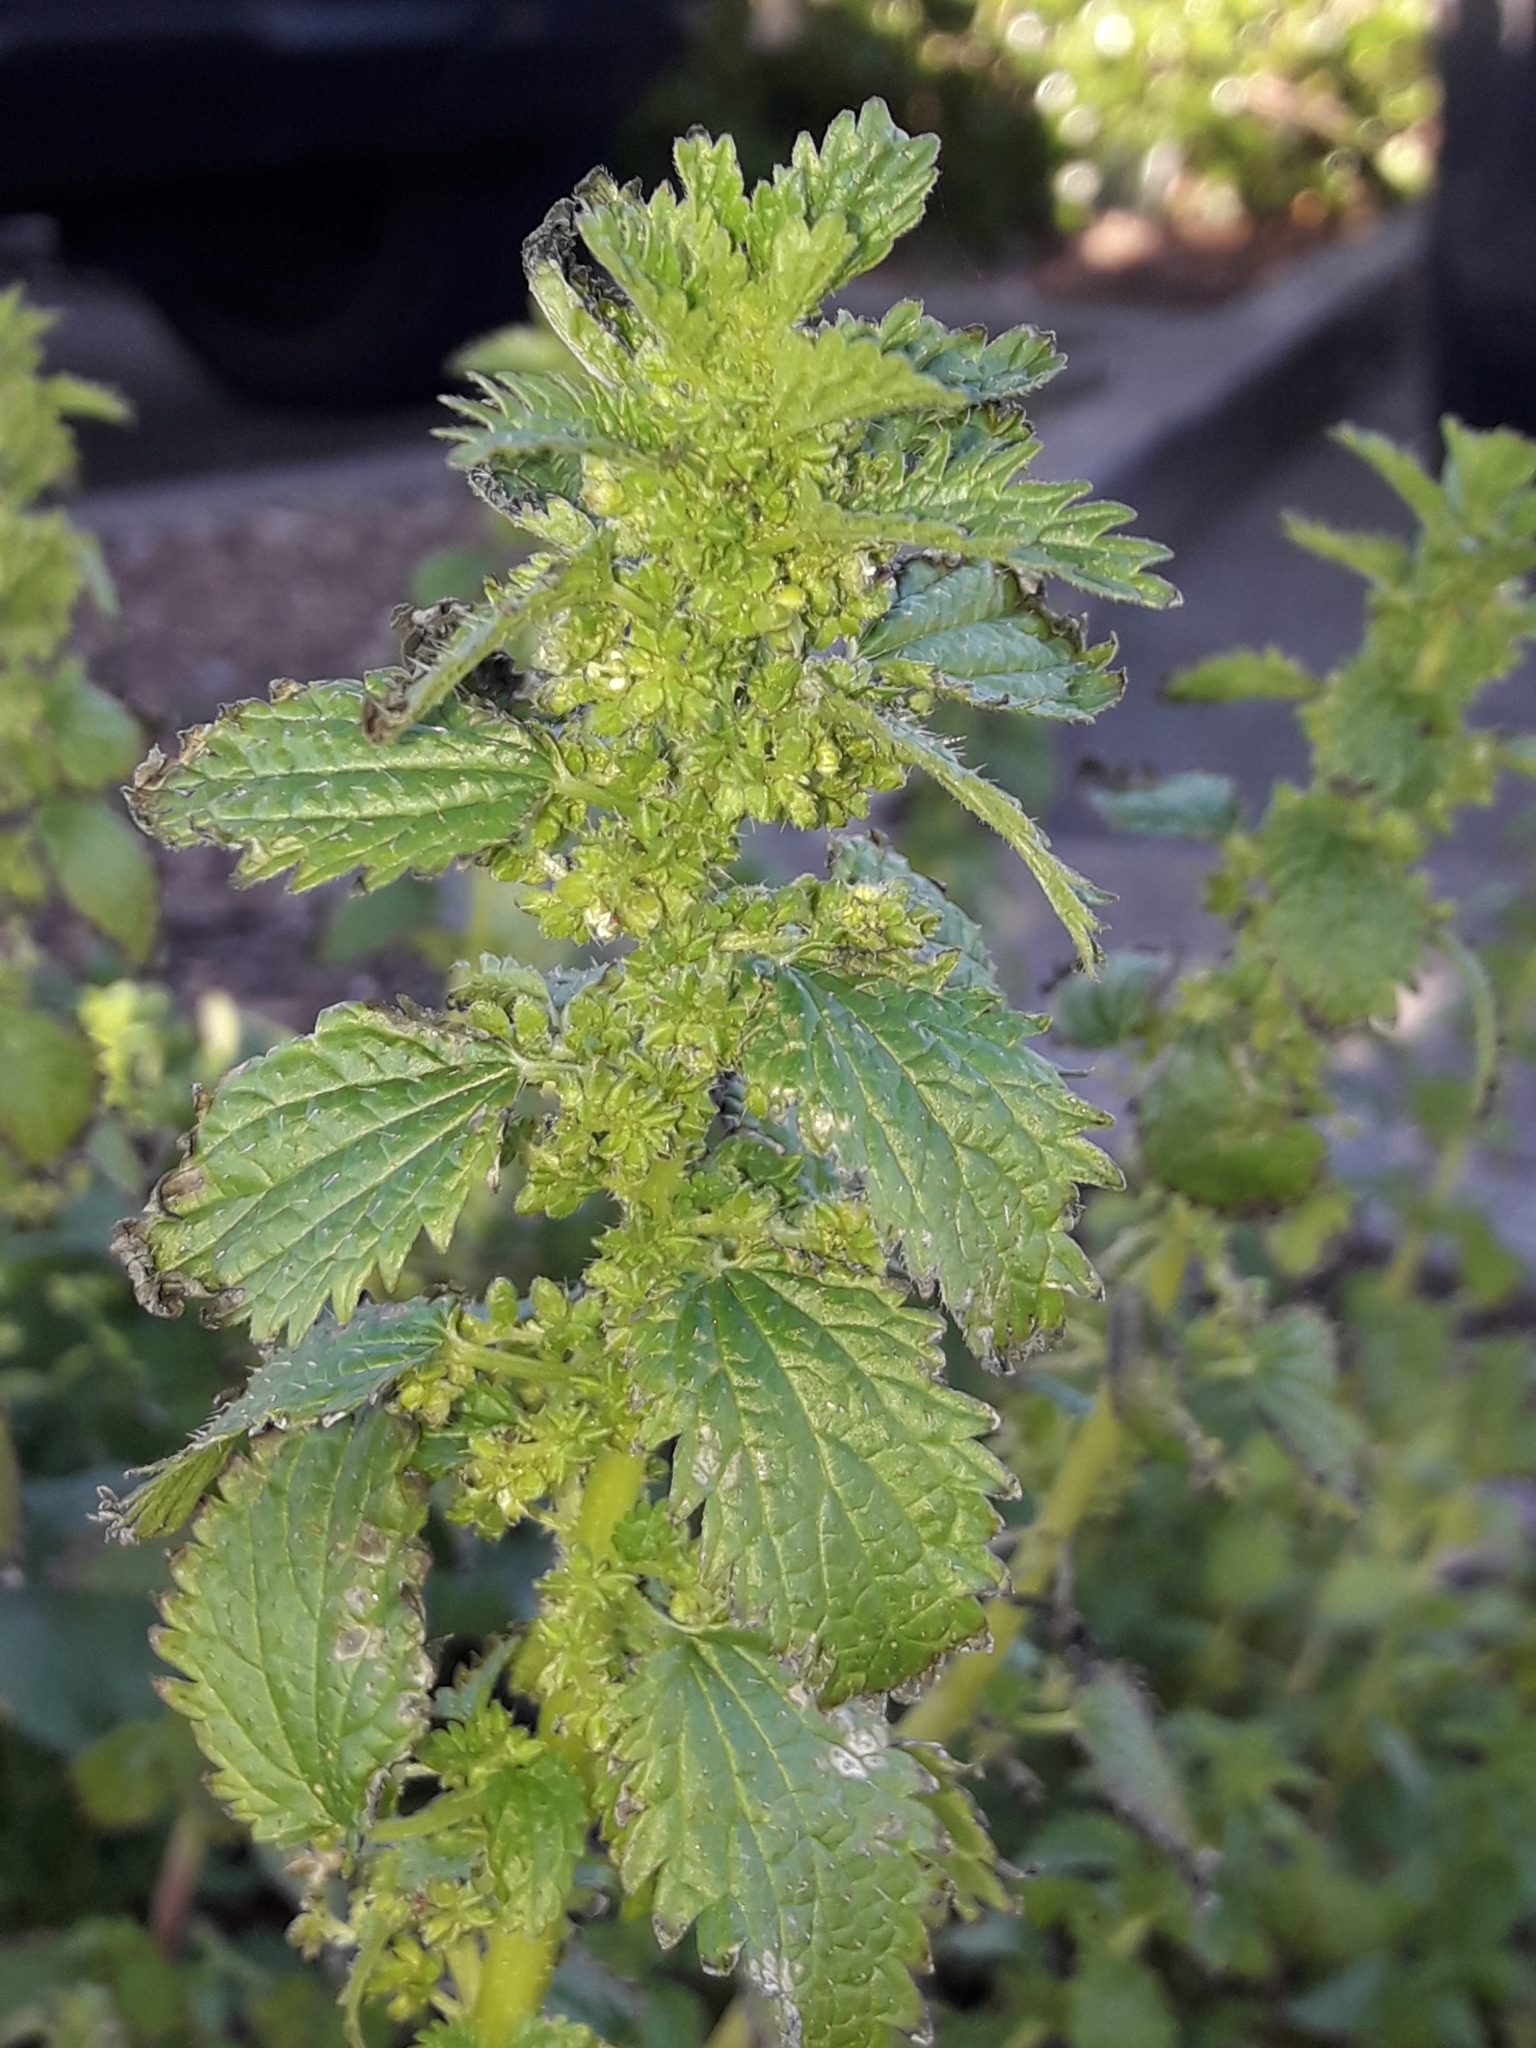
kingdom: Plantae
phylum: Tracheophyta
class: Magnoliopsida
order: Rosales
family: Urticaceae
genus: Urtica
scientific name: Urtica urens
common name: Dwarf nettle
